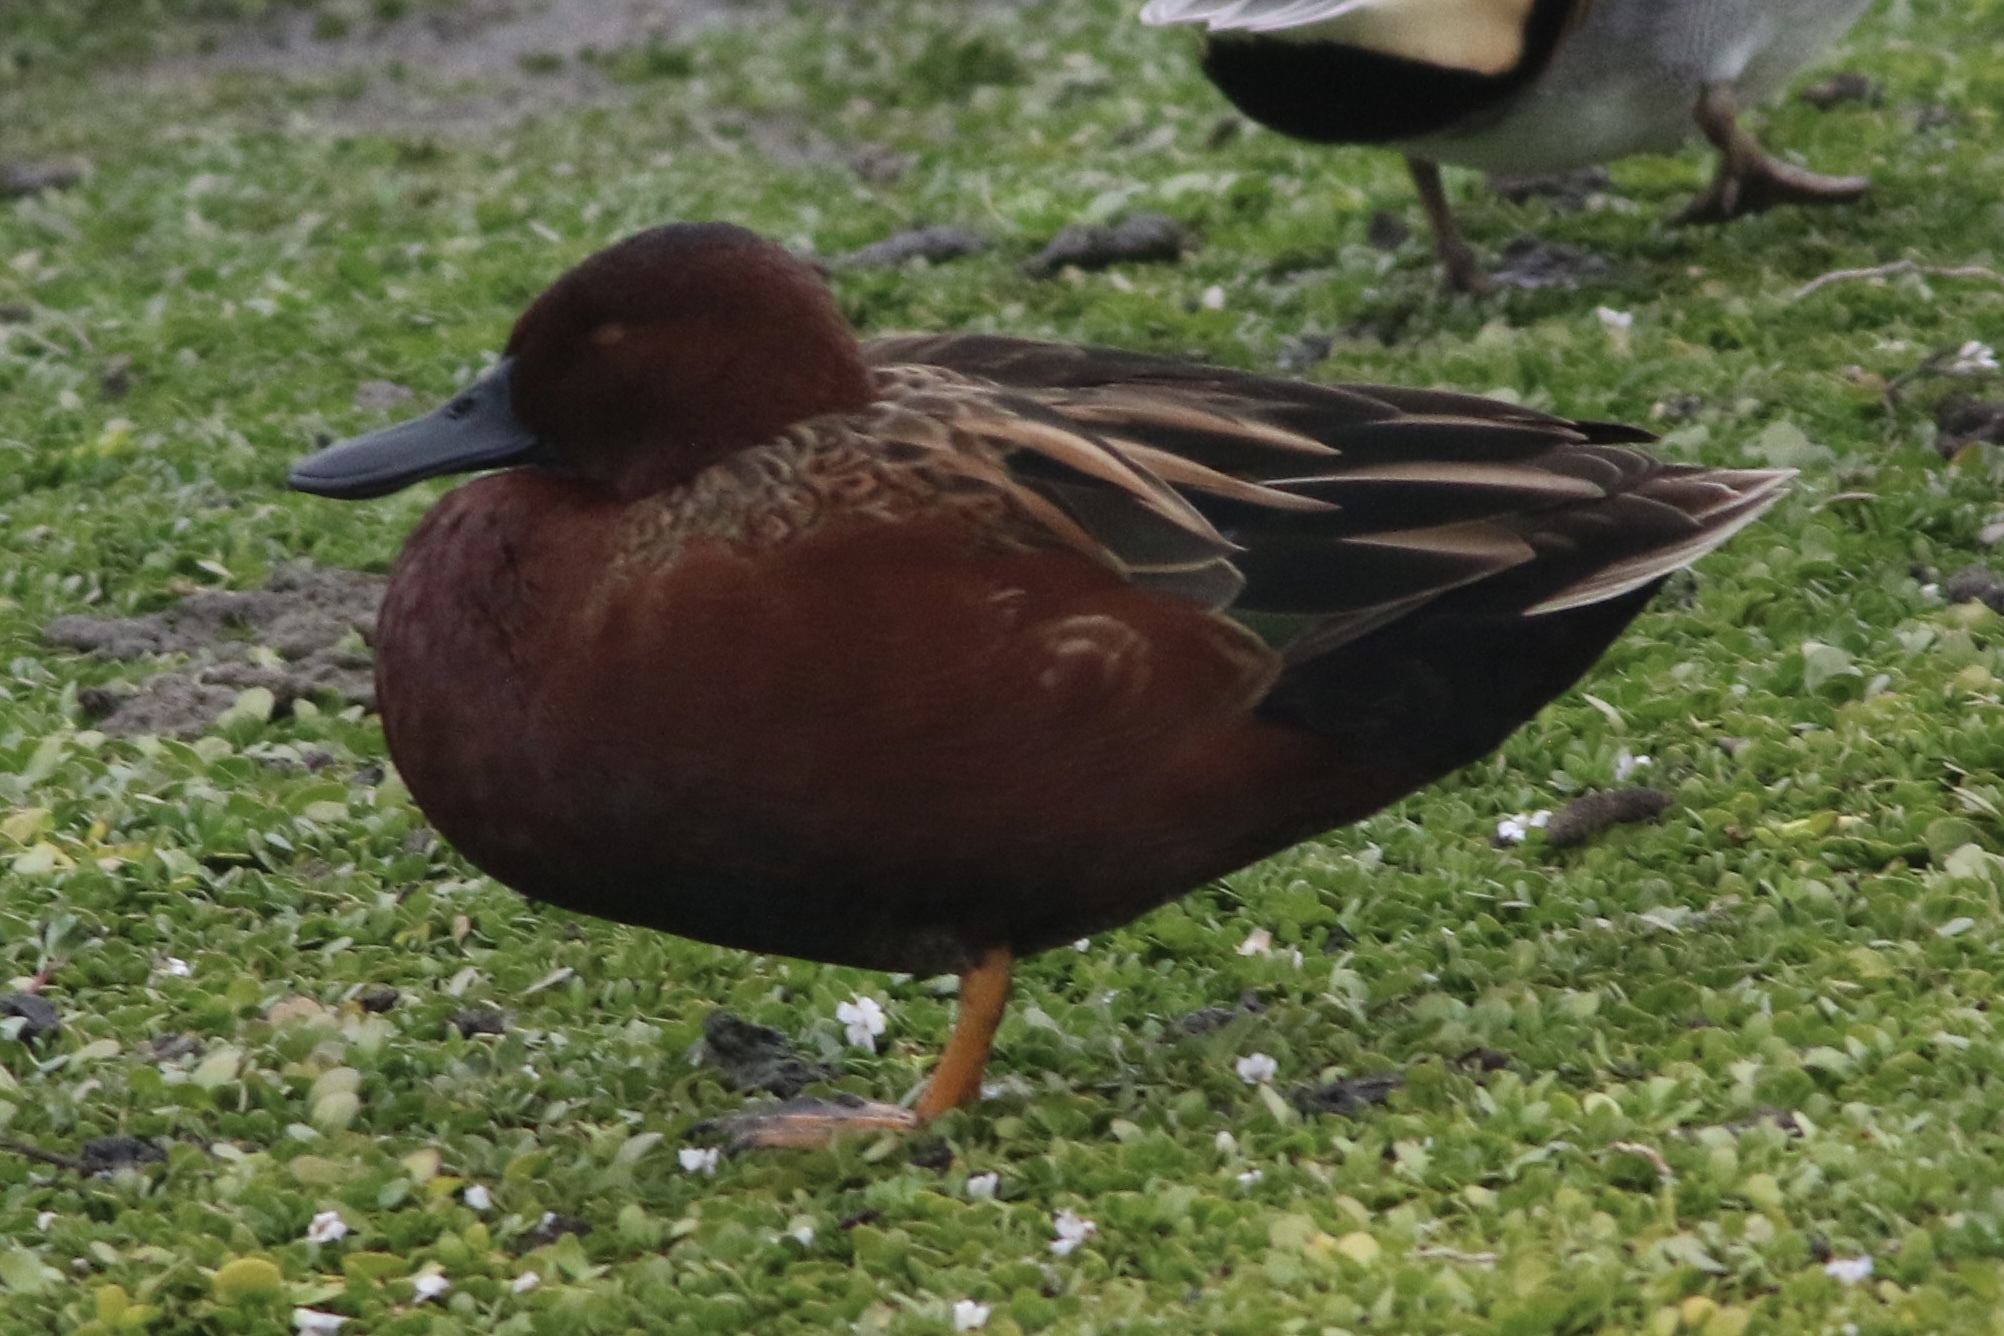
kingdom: Animalia
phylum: Chordata
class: Aves
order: Anseriformes
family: Anatidae
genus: Spatula
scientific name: Spatula cyanoptera
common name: Cinnamon teal
